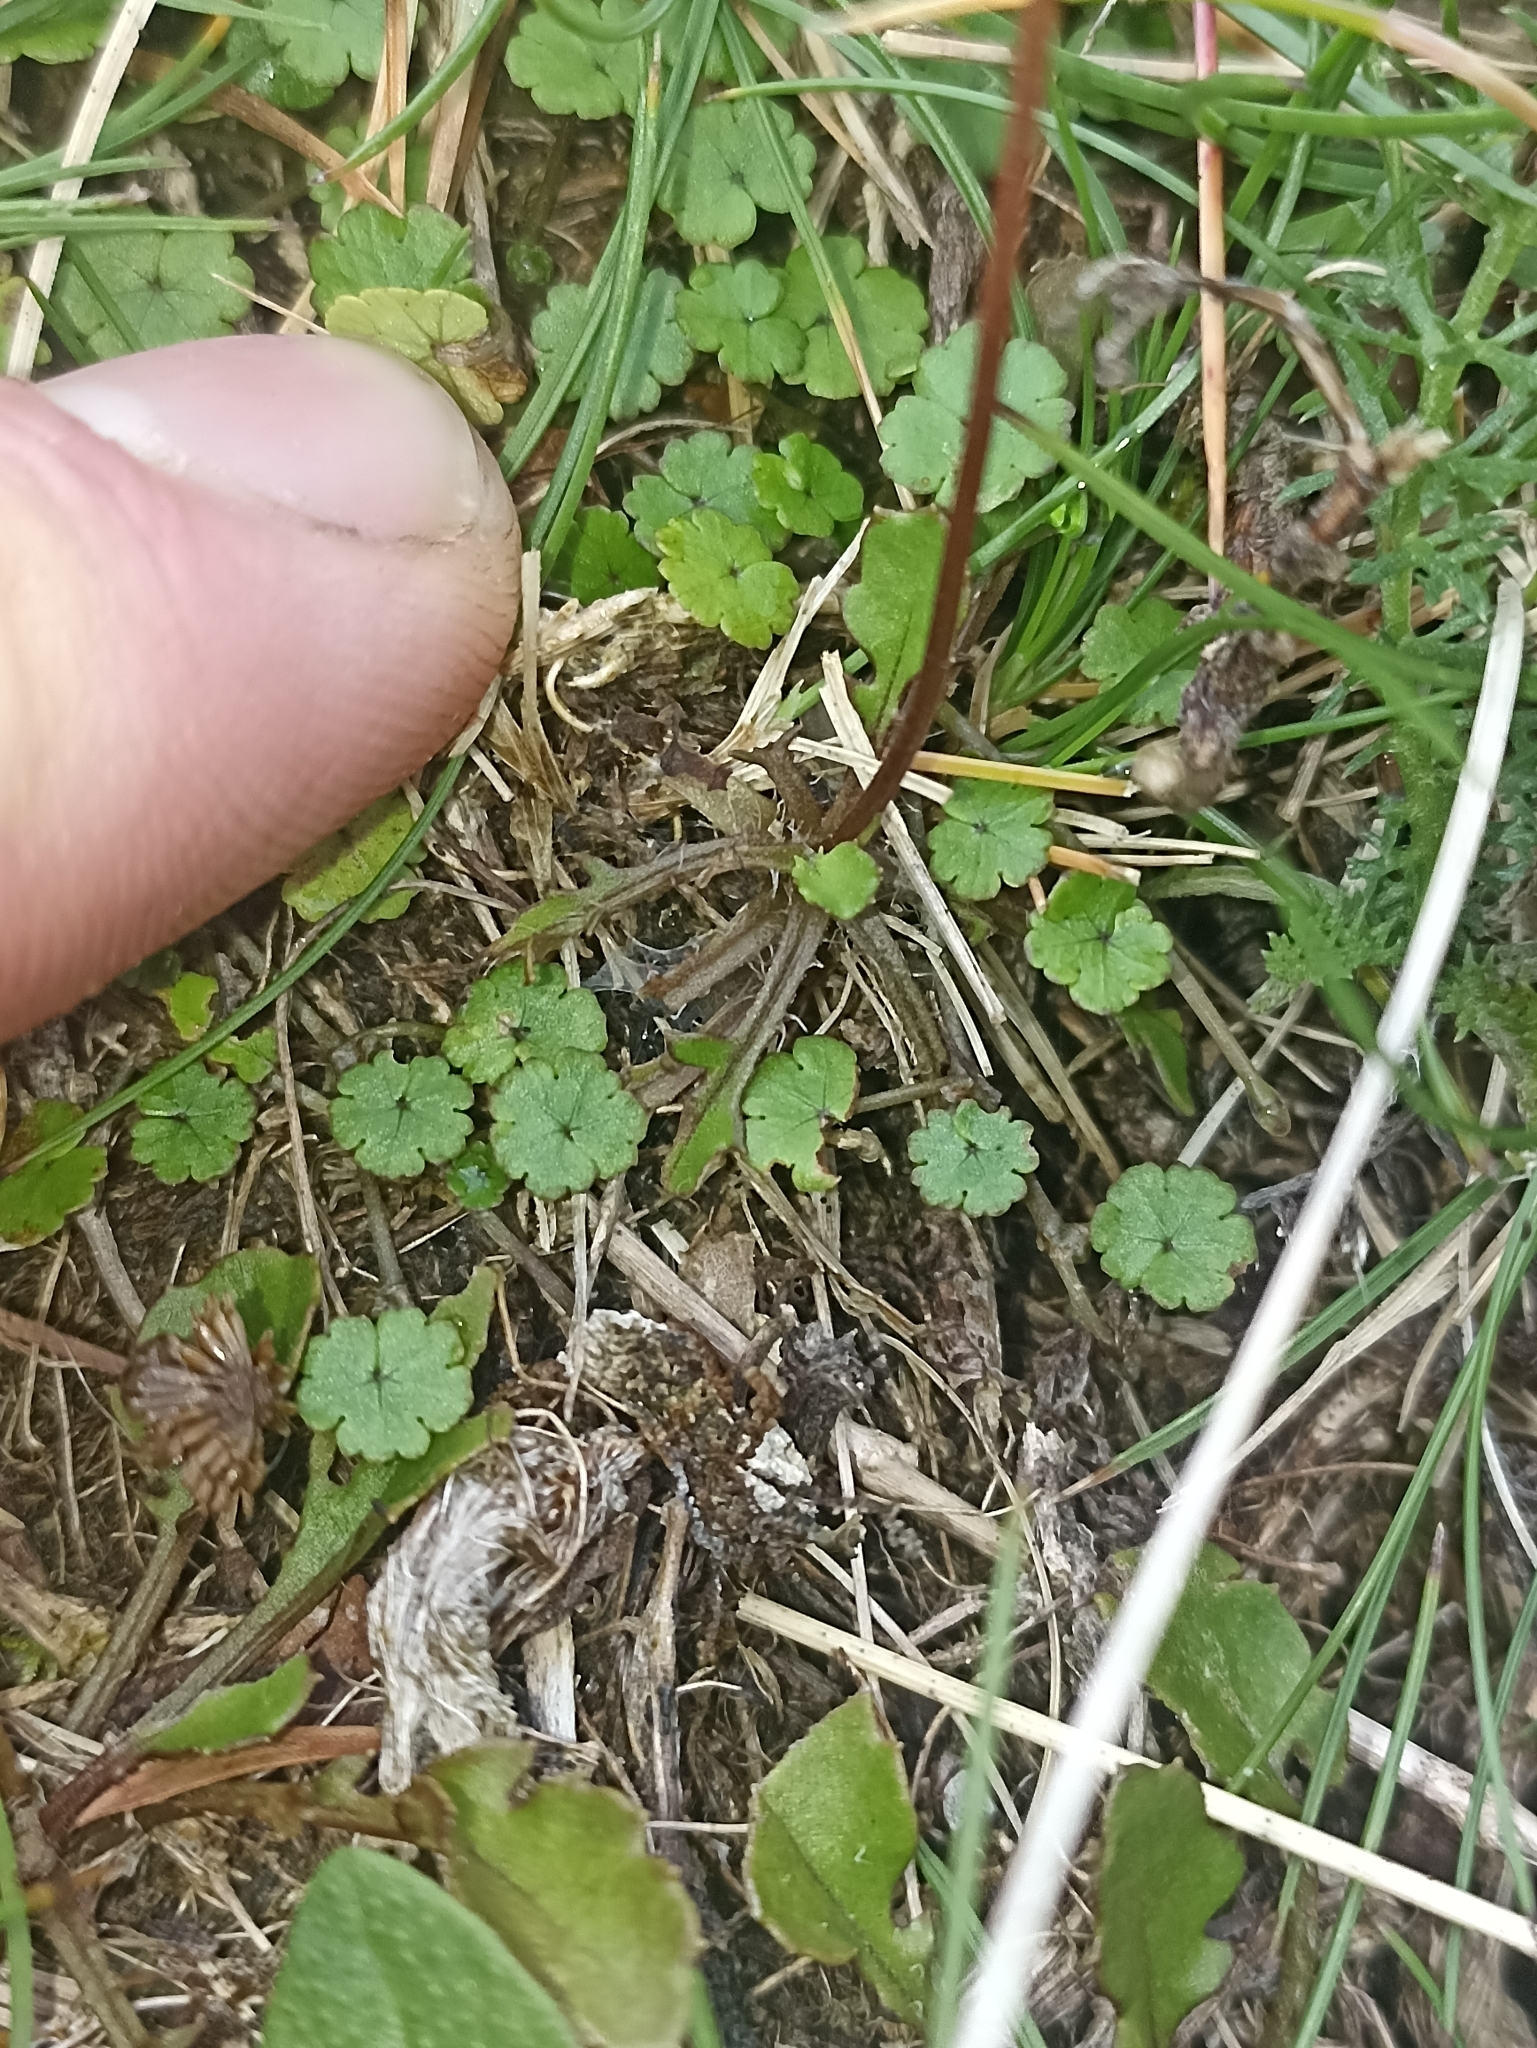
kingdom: Plantae
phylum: Tracheophyta
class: Magnoliopsida
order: Asterales
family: Asteraceae
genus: Lagenophora
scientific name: Lagenophora pumila
